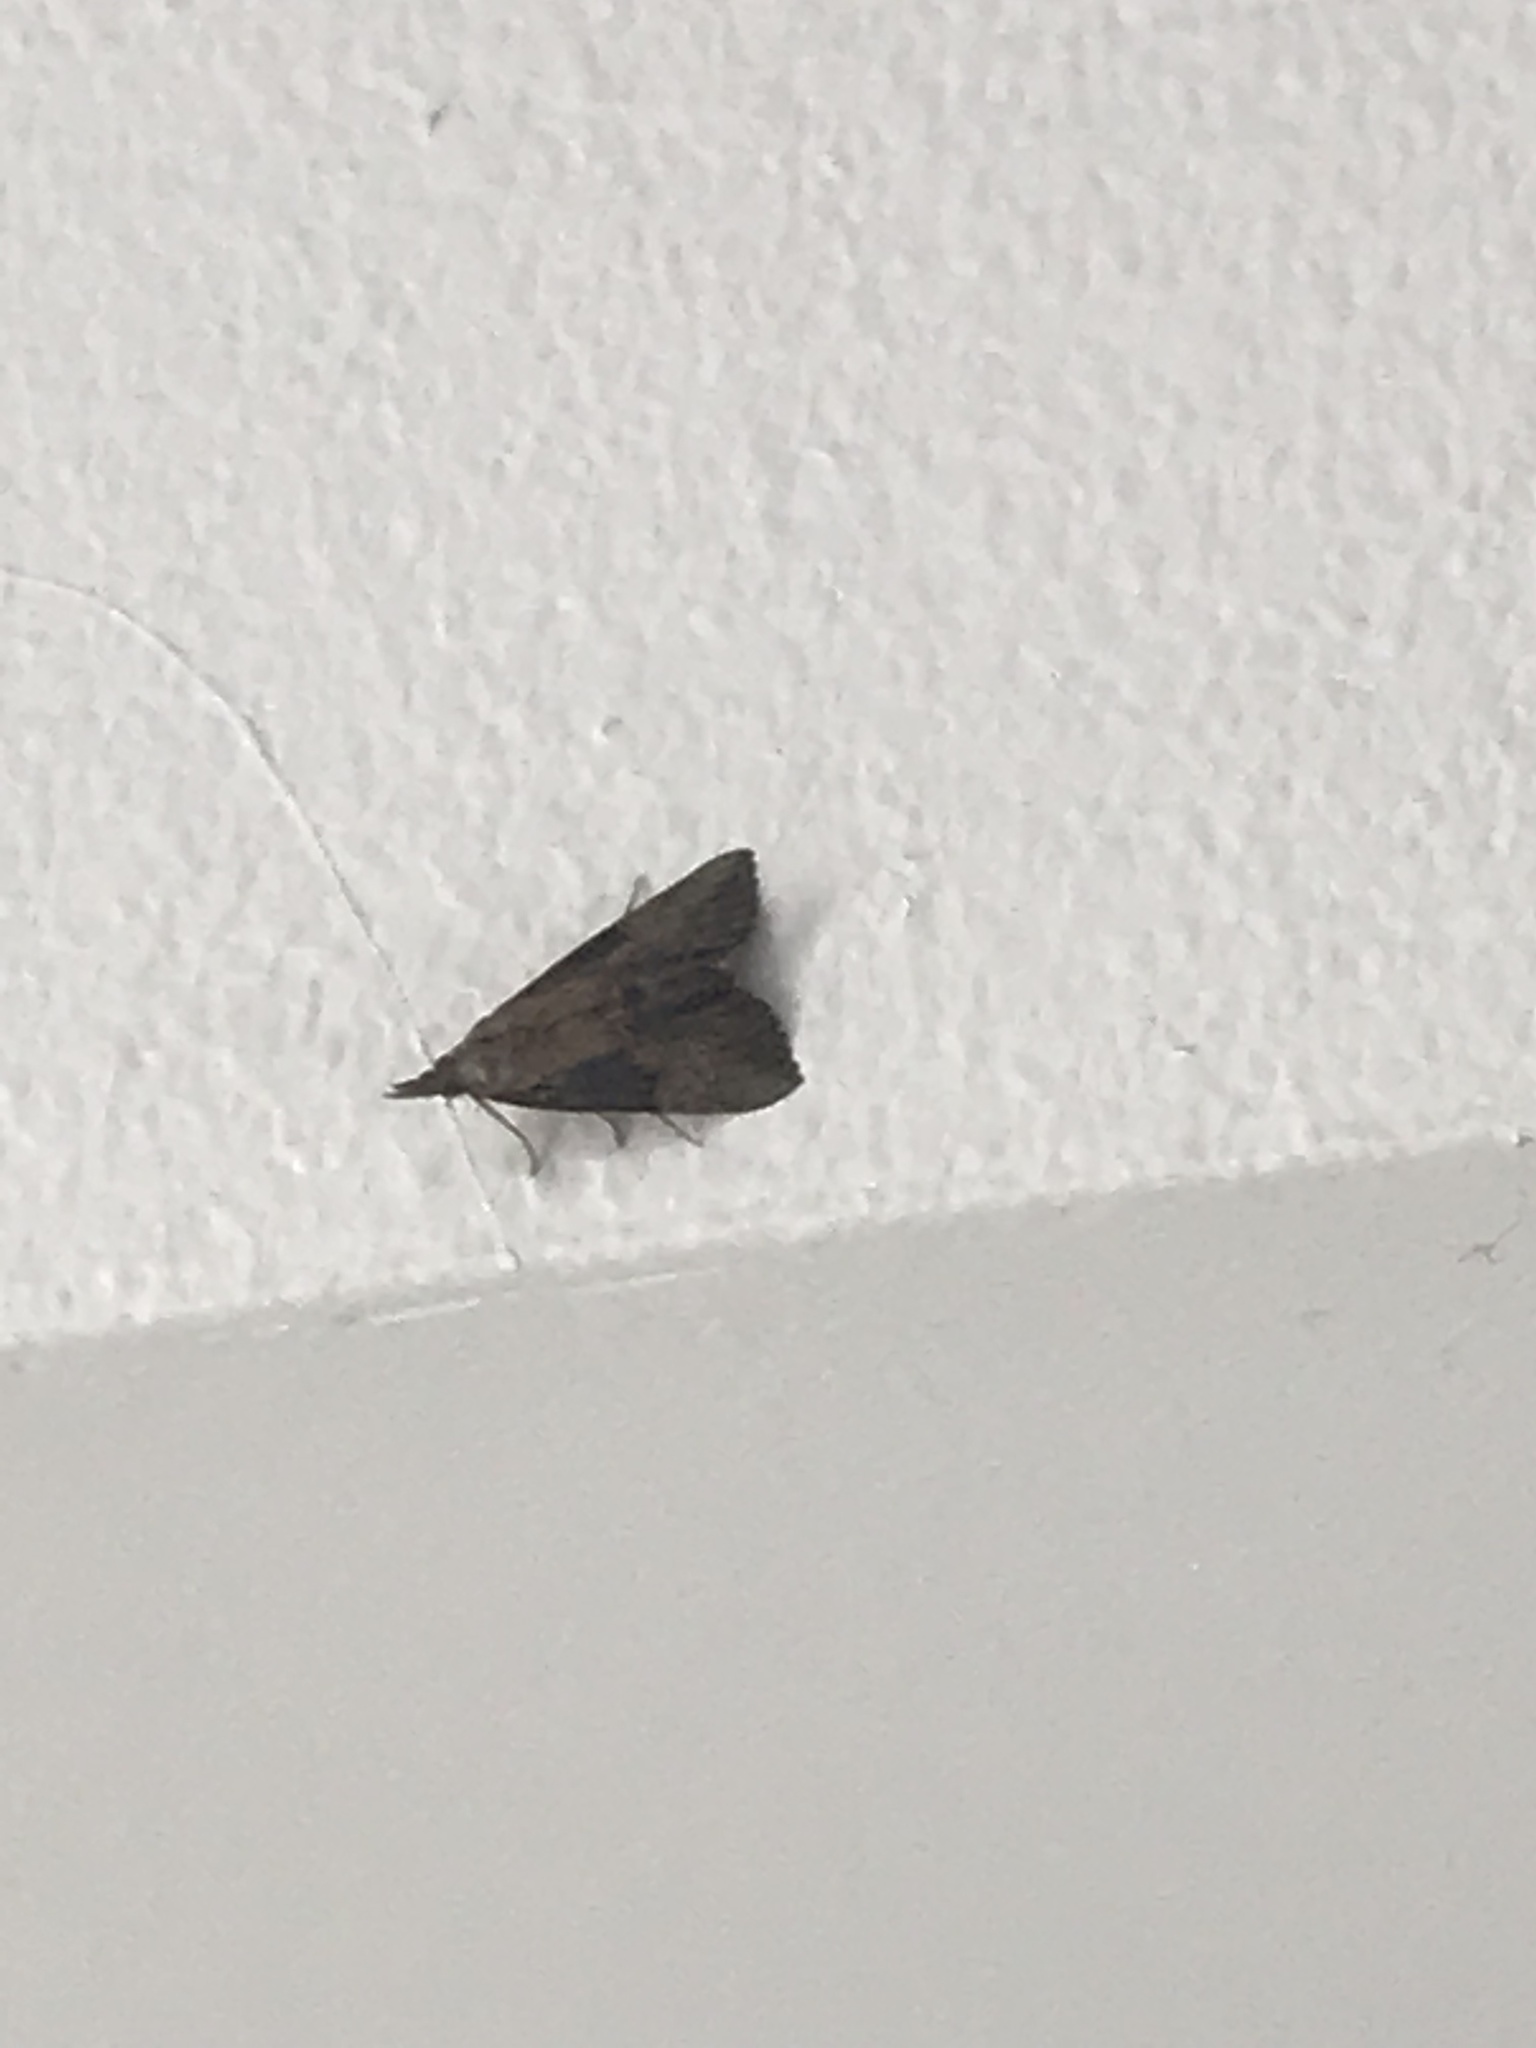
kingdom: Animalia
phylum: Arthropoda
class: Insecta
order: Lepidoptera
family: Erebidae
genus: Hypena
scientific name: Hypena scabra
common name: Green cloverworm
